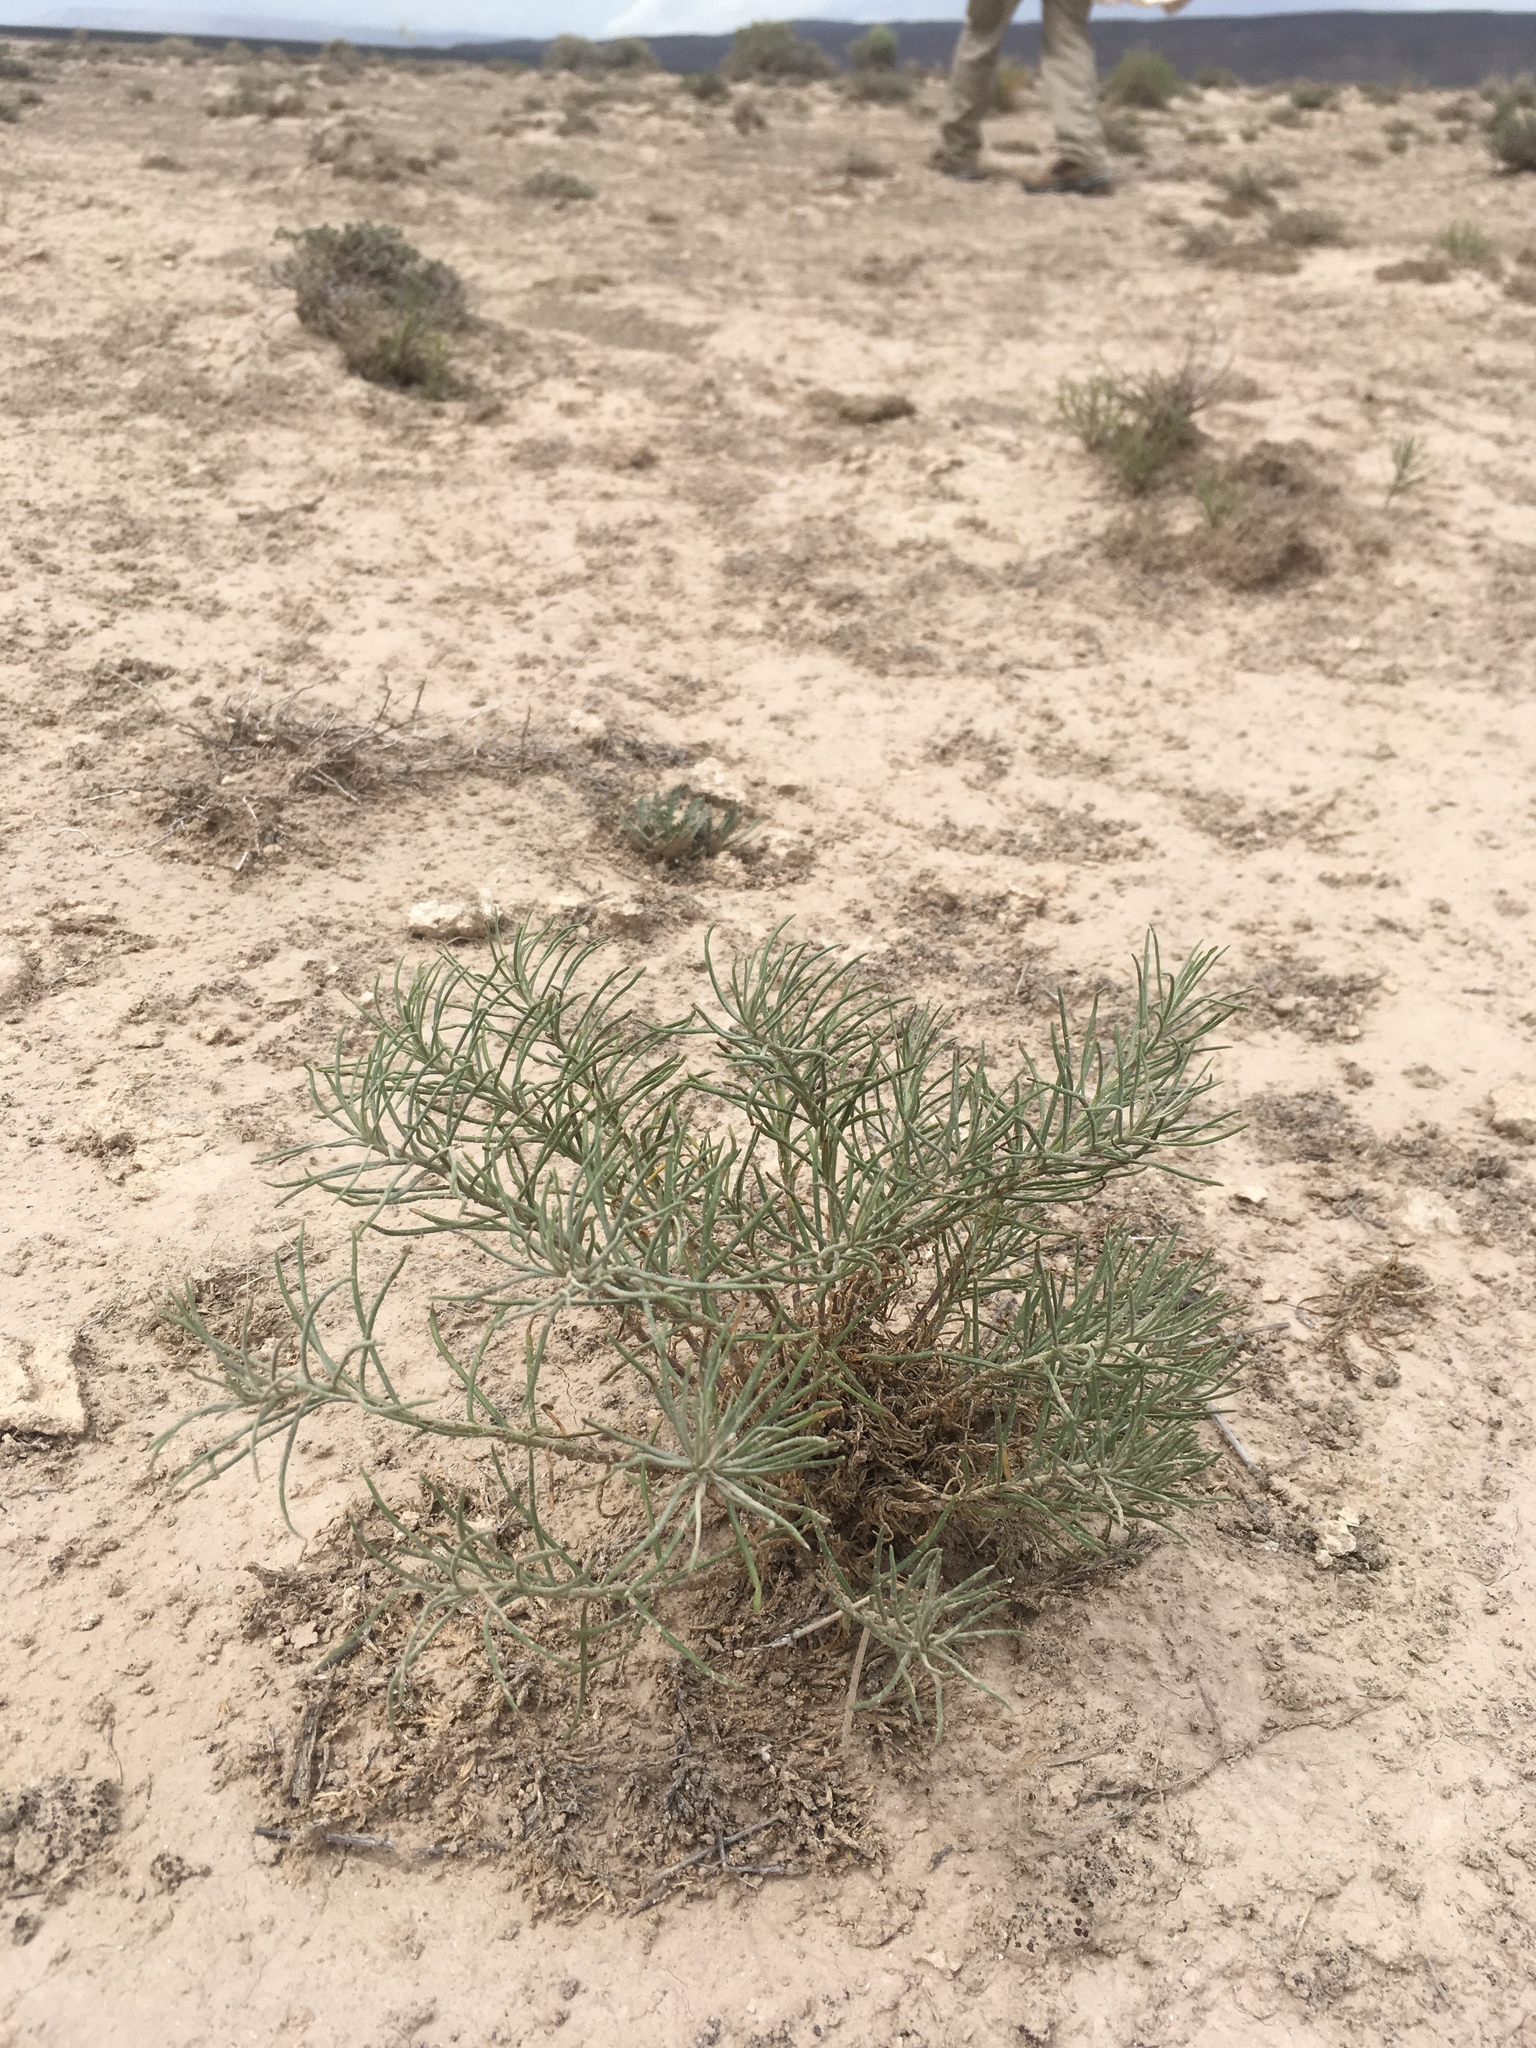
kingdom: Plantae
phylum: Tracheophyta
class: Magnoliopsida
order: Asterales
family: Asteraceae
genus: Senecio
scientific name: Senecio warnockii
